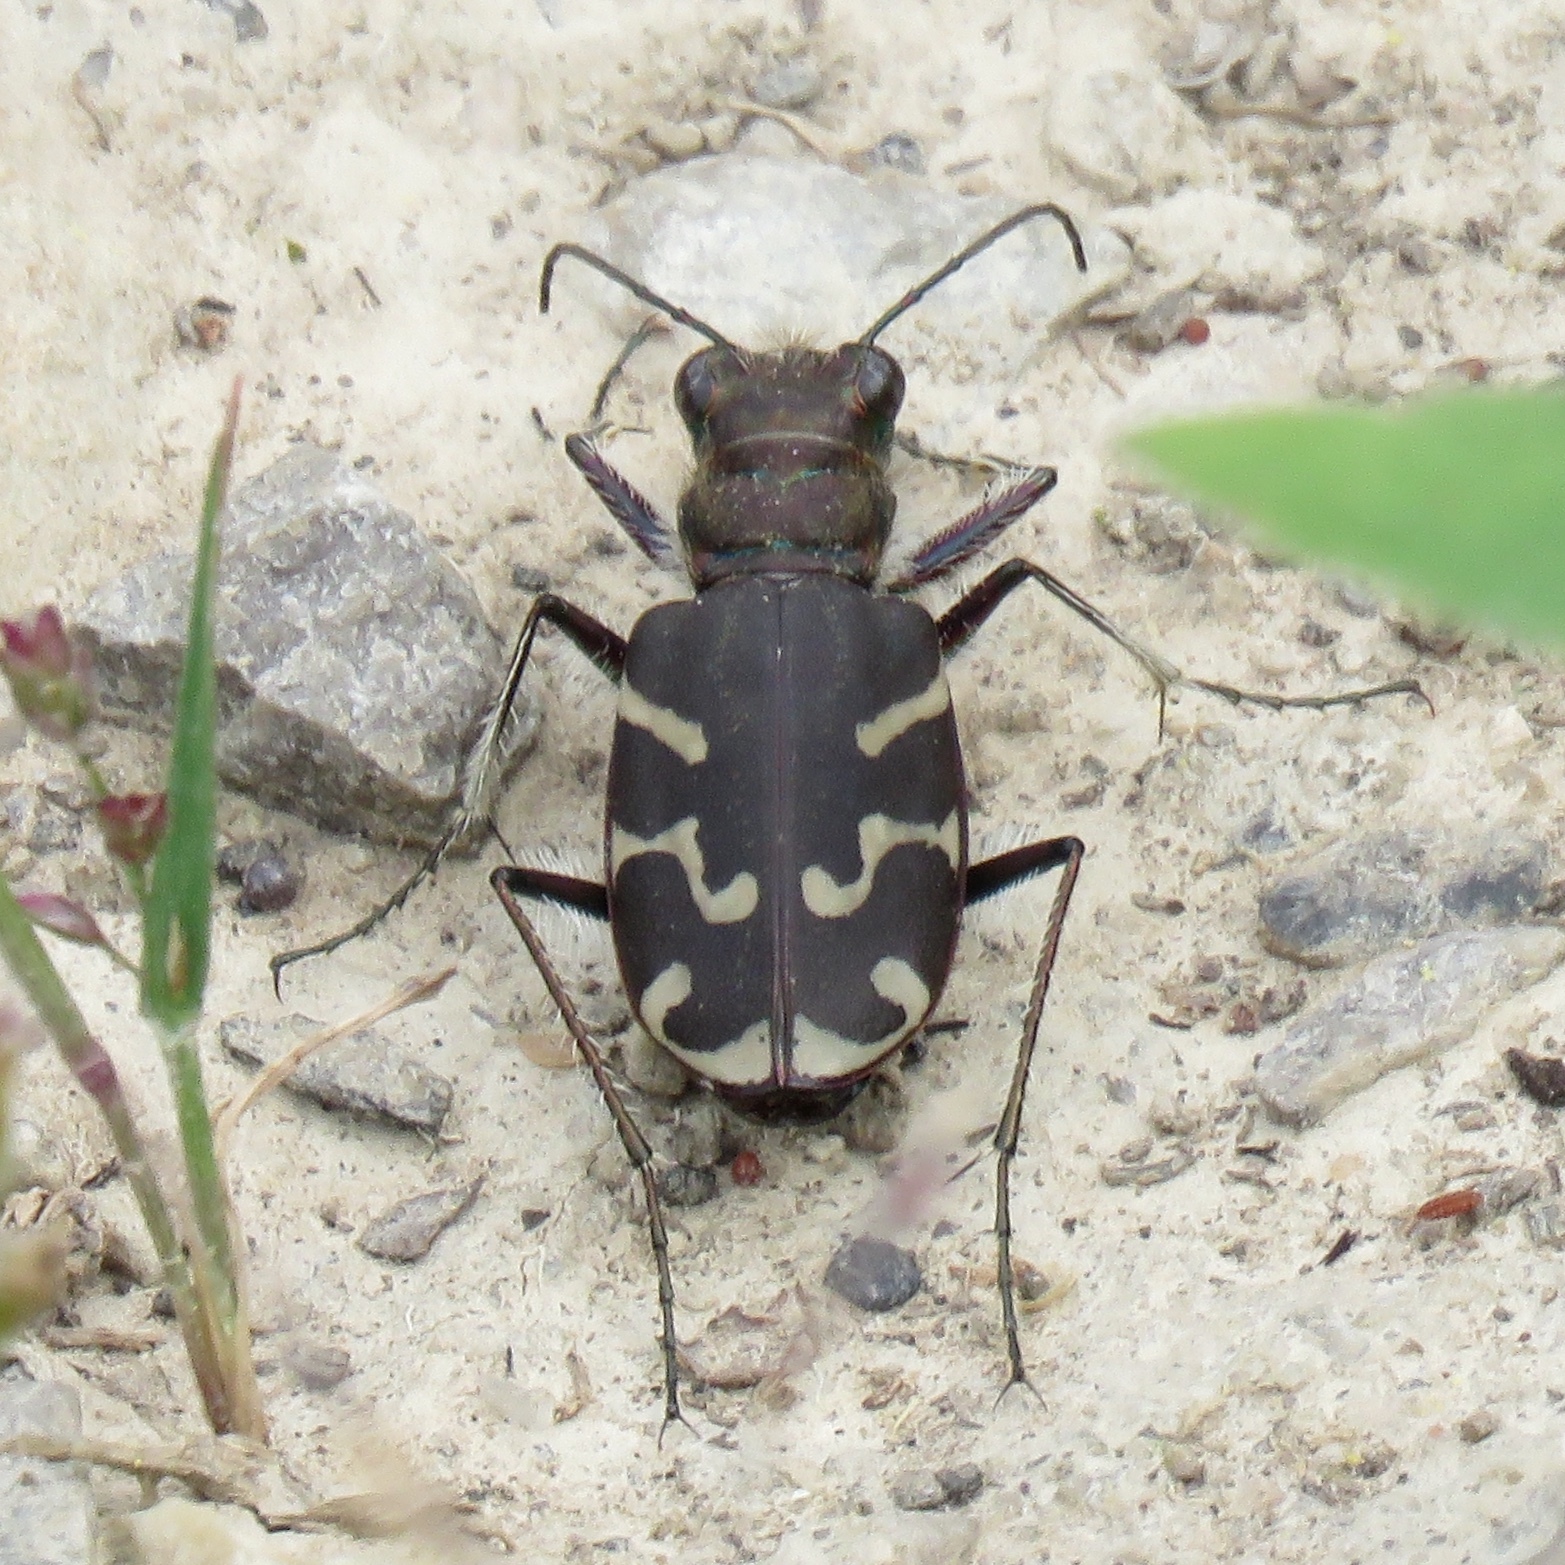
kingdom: Animalia
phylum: Arthropoda
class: Insecta
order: Coleoptera
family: Carabidae
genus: Cicindela
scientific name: Cicindela tranquebarica
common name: Oblique-lined tiger beetle
